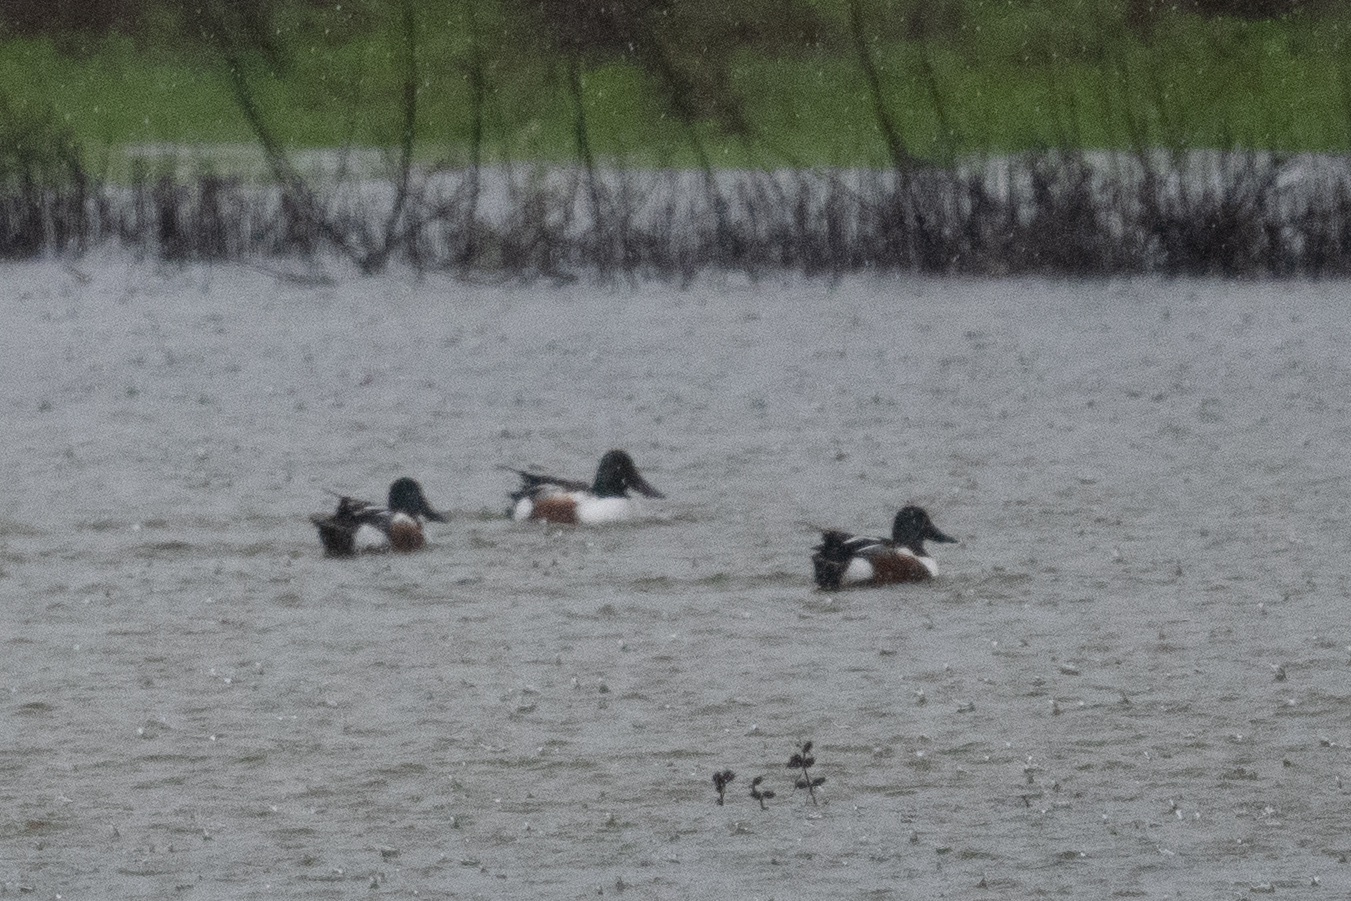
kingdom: Animalia
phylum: Chordata
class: Aves
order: Anseriformes
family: Anatidae
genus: Spatula
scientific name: Spatula clypeata
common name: Northern shoveler
